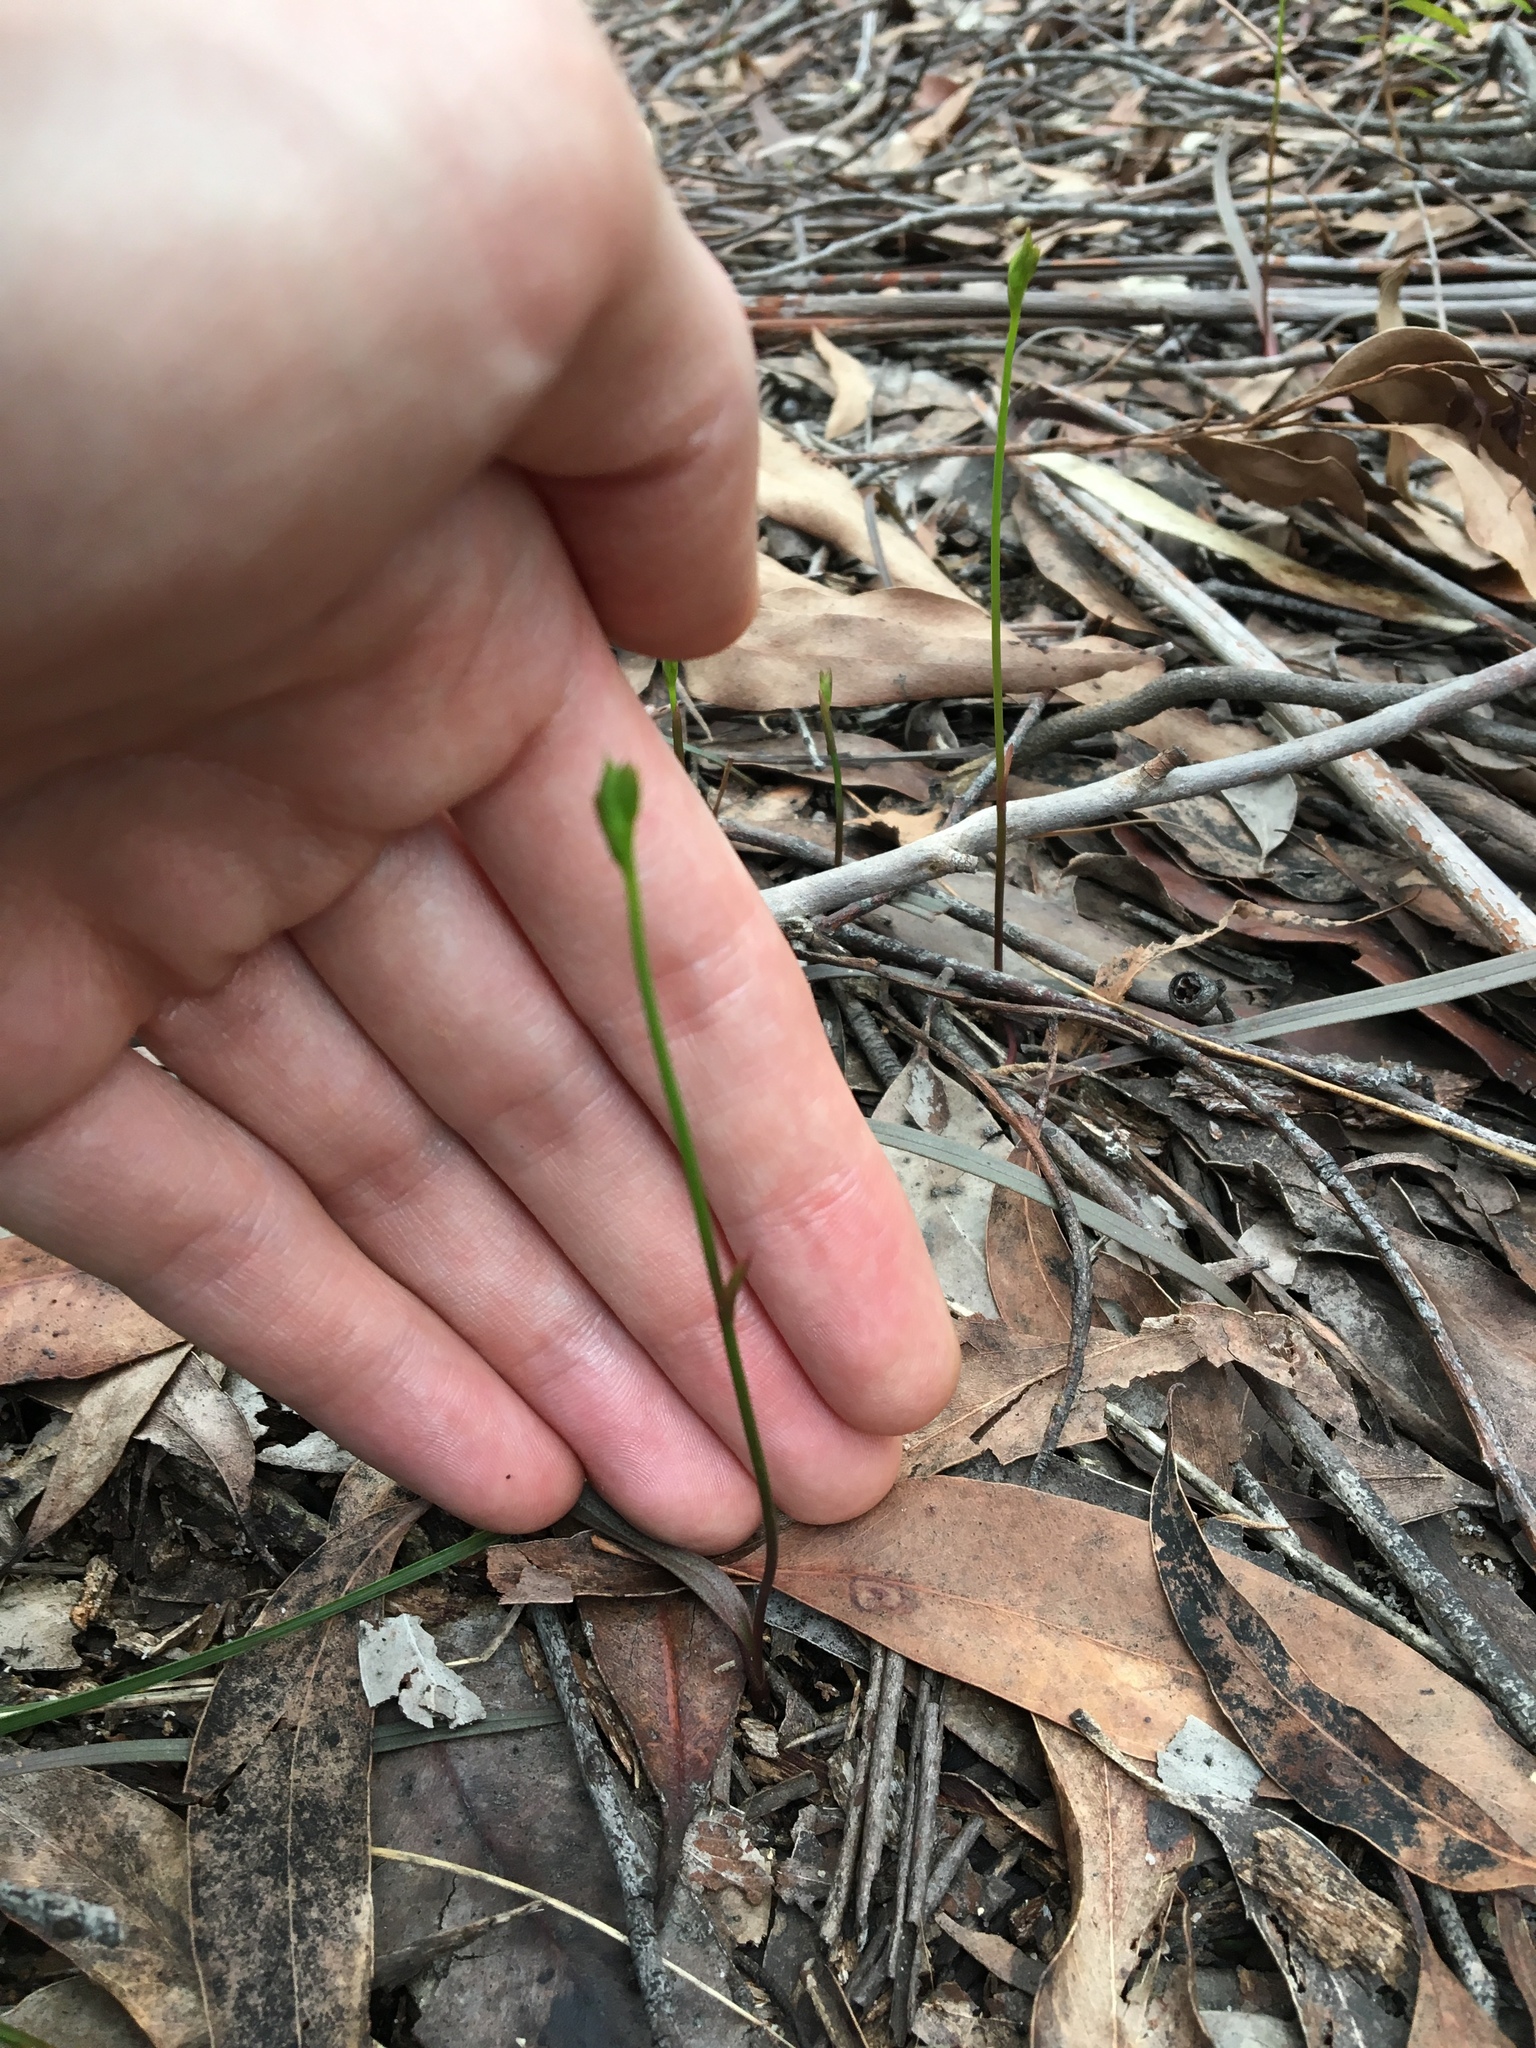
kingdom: Plantae
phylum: Tracheophyta
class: Liliopsida
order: Asparagales
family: Orchidaceae
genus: Caleana
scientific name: Caleana major
